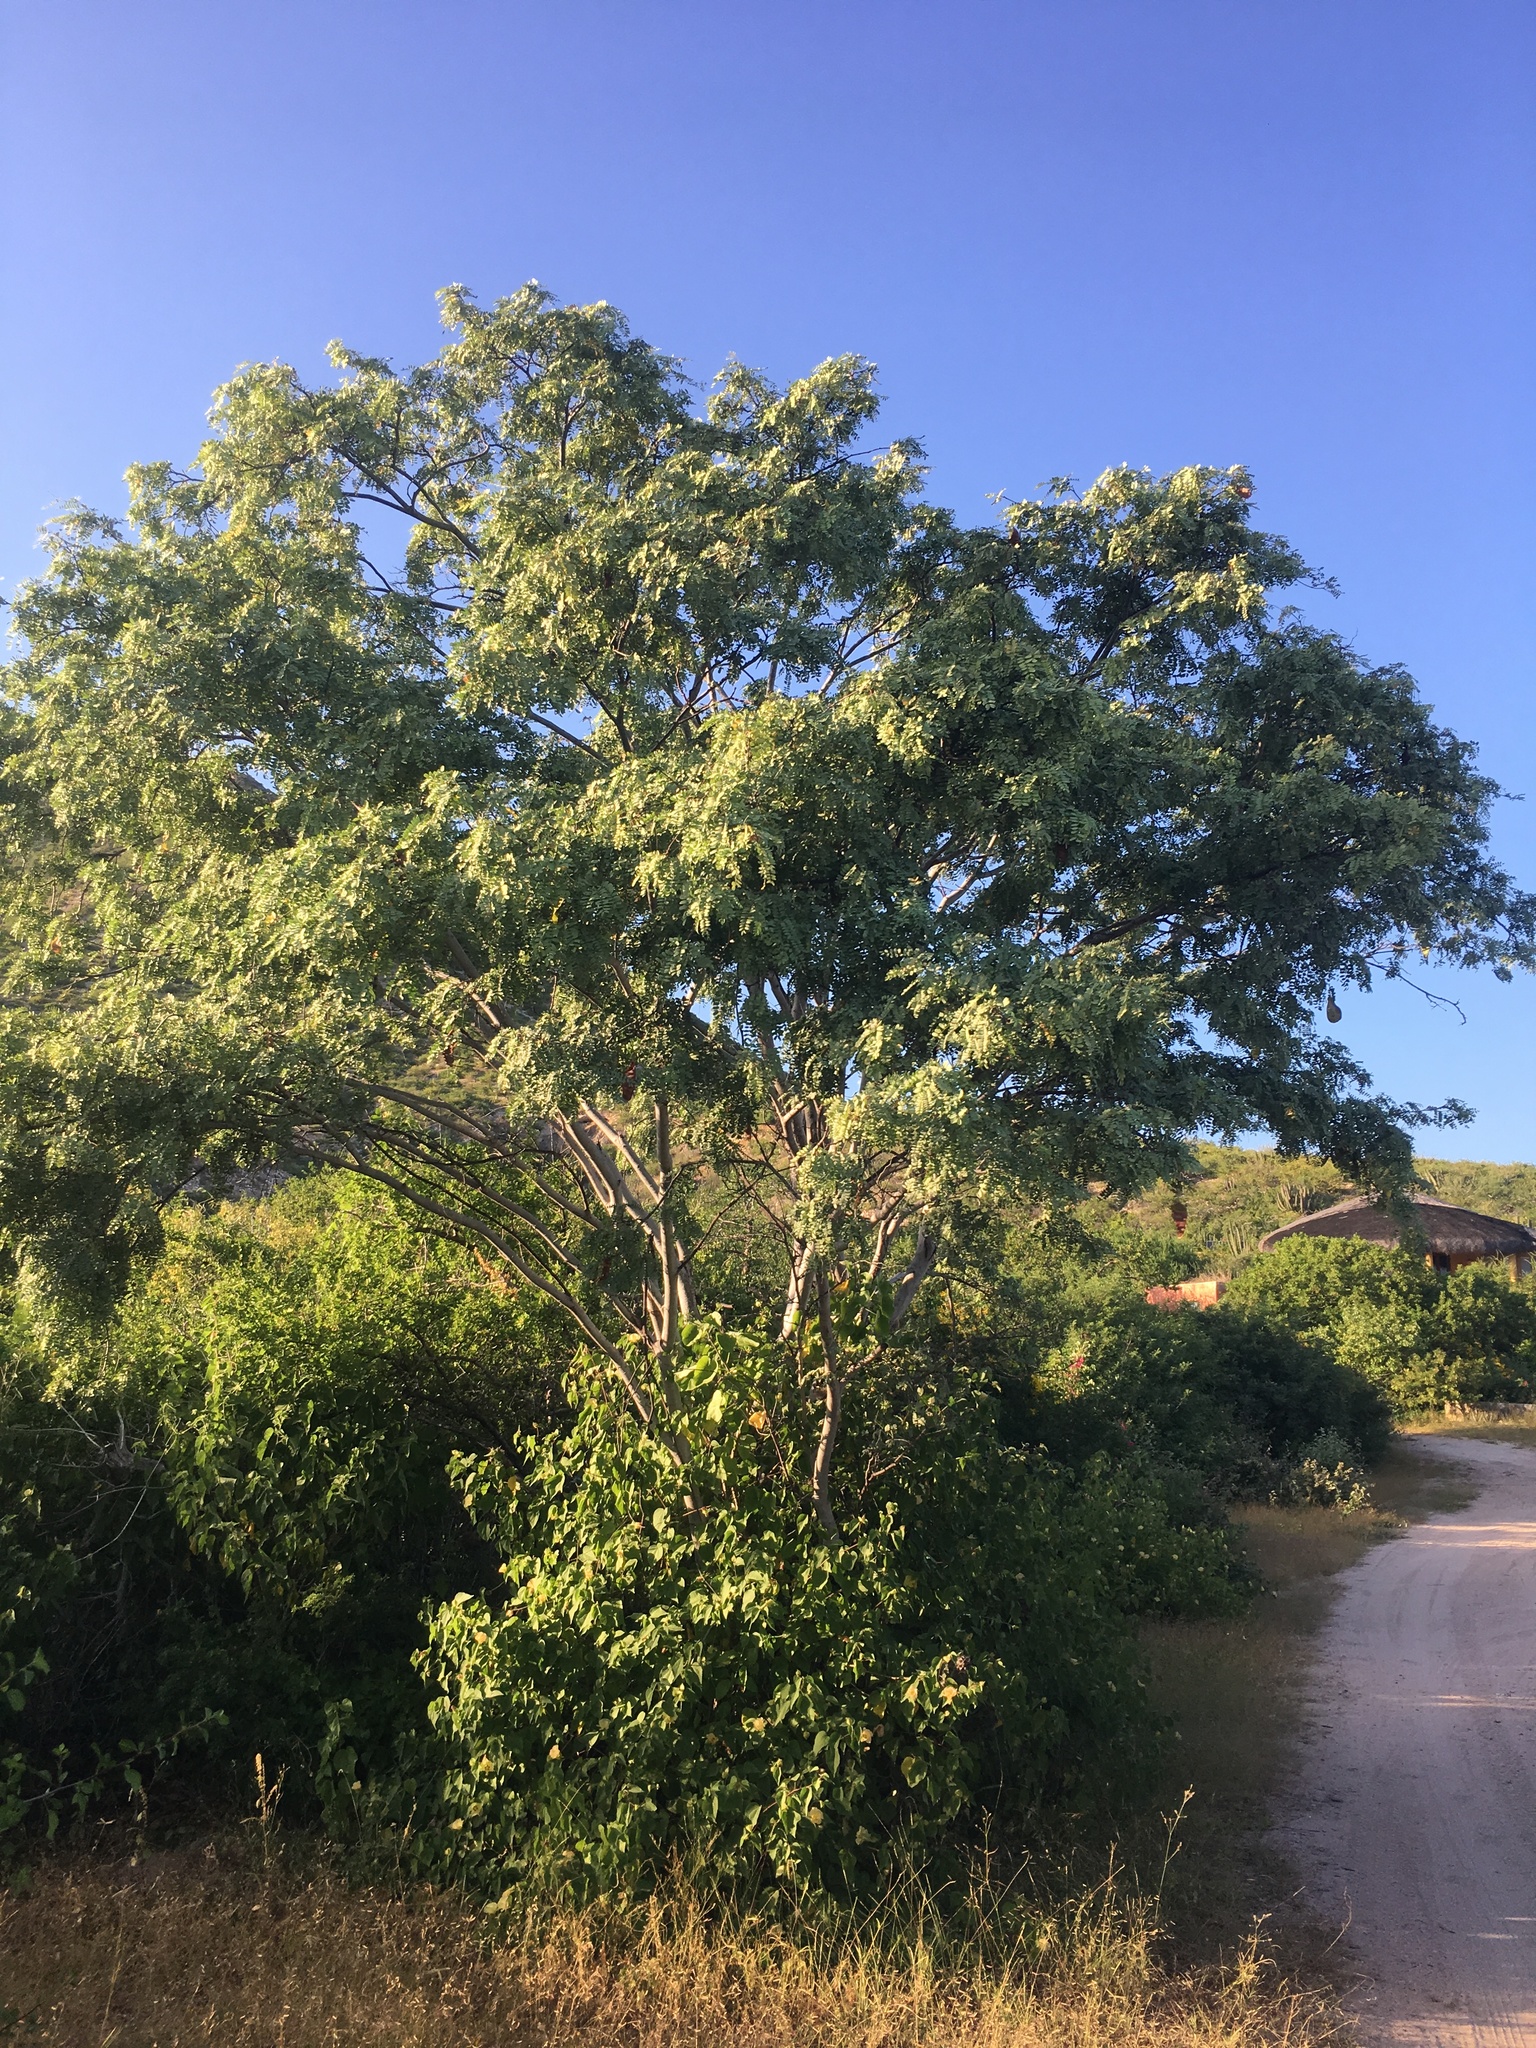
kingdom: Plantae
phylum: Tracheophyta
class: Magnoliopsida
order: Fabales
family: Fabaceae
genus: Lysiloma
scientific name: Lysiloma candidum
